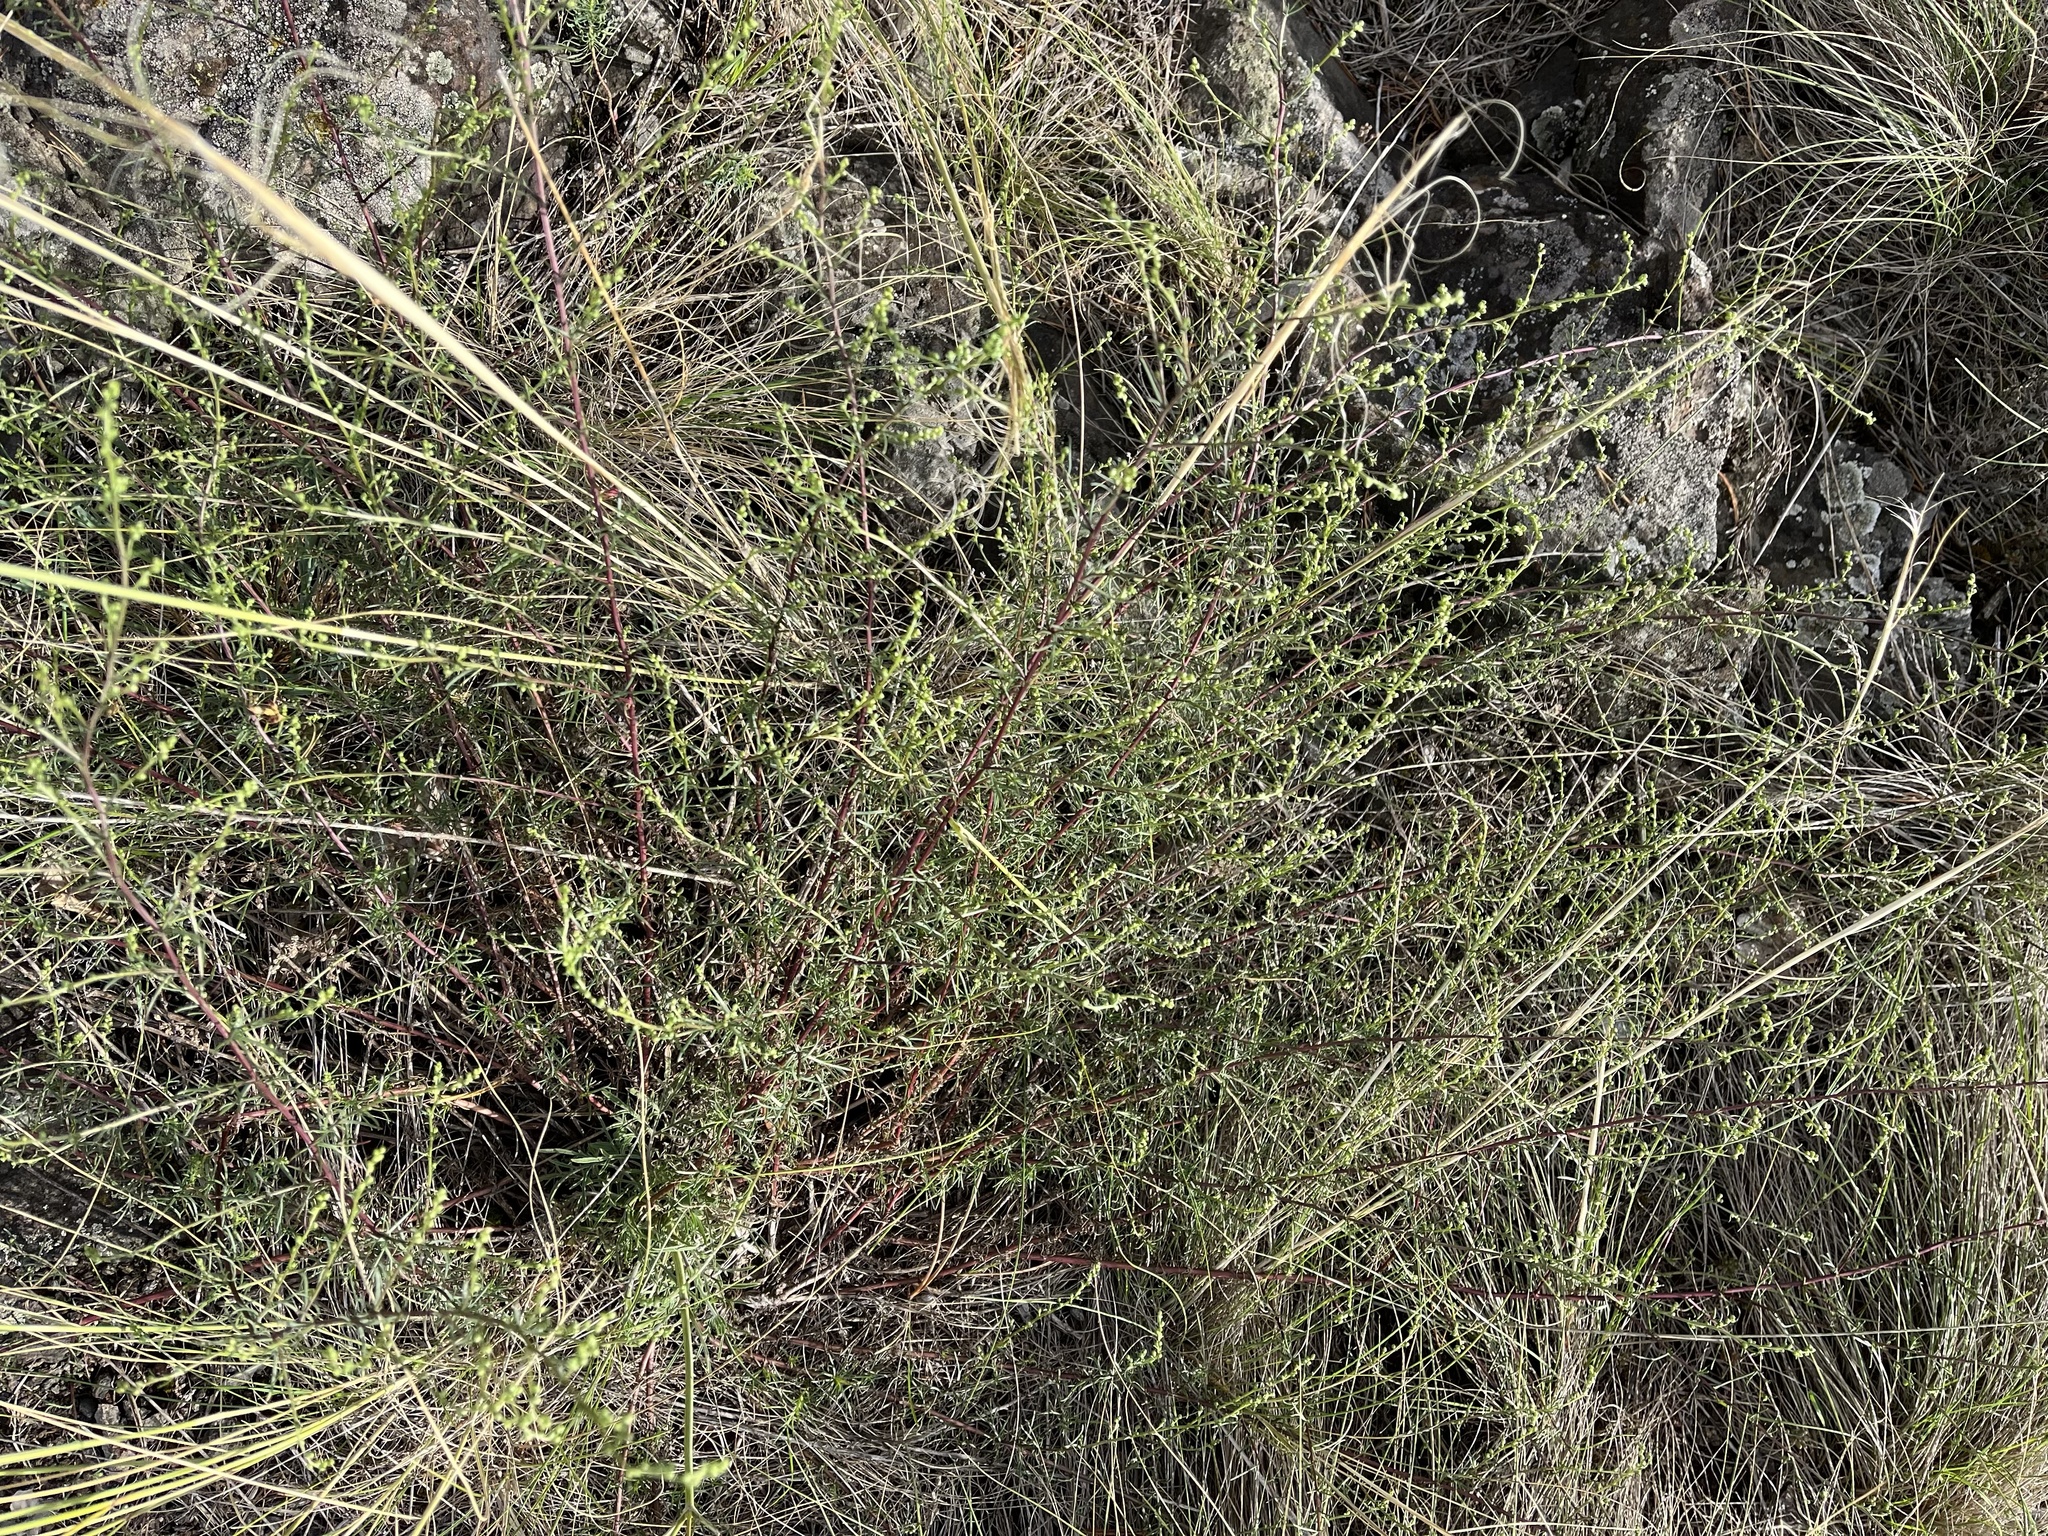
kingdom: Plantae
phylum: Tracheophyta
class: Magnoliopsida
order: Asterales
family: Asteraceae
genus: Artemisia
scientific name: Artemisia campestris
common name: Field wormwood
